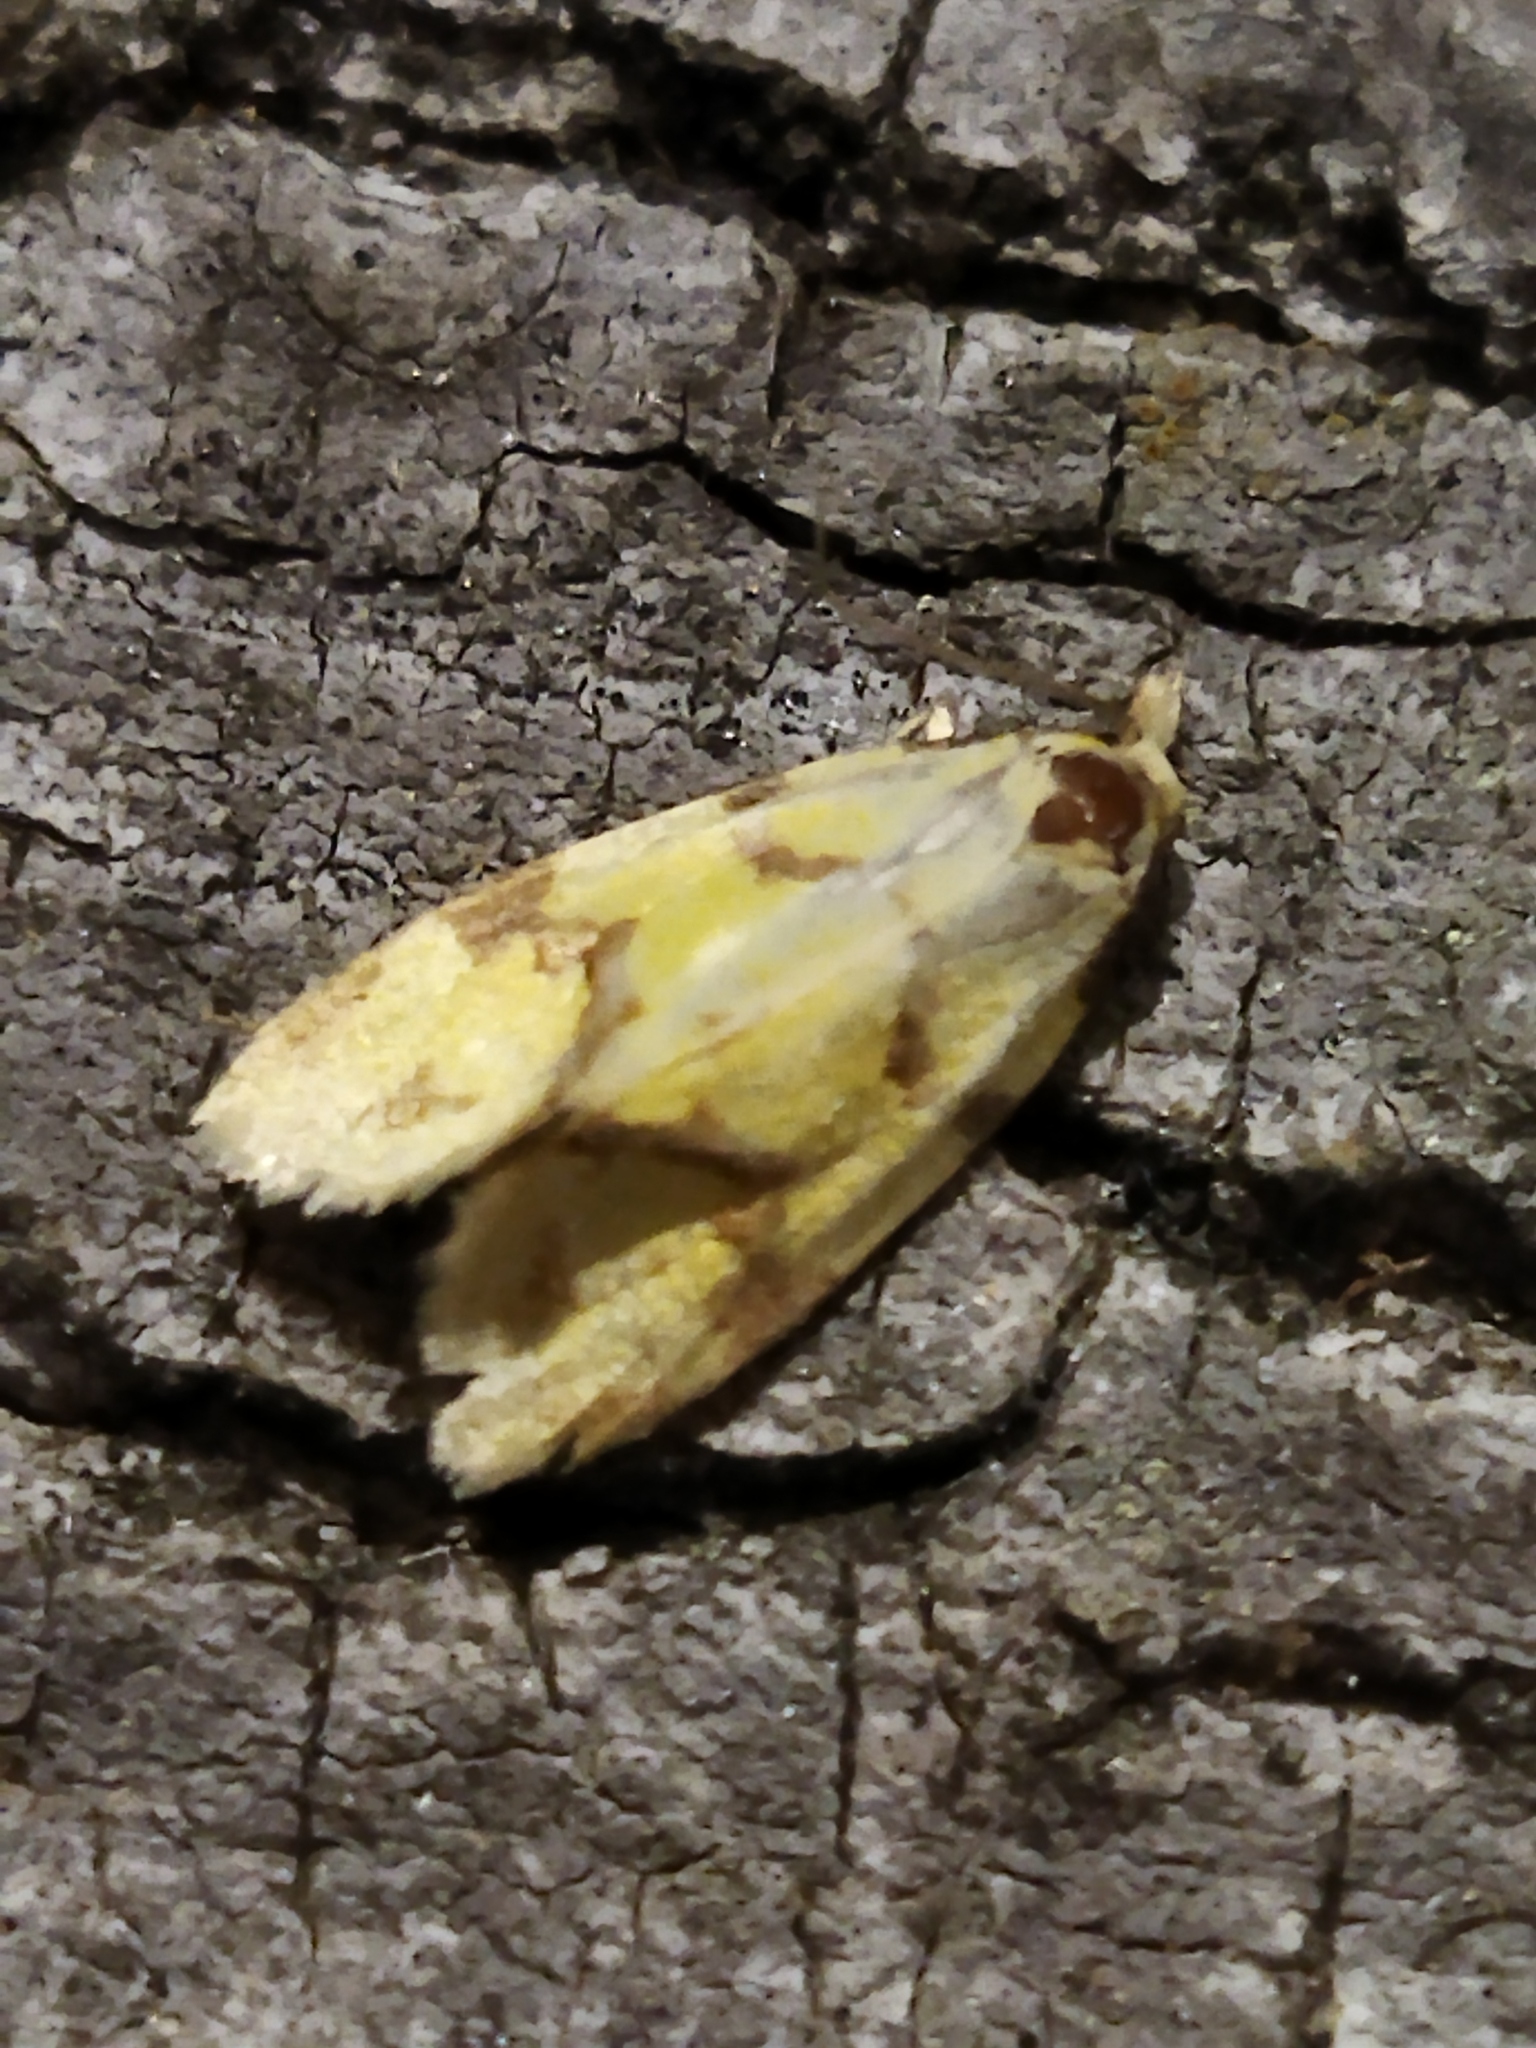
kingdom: Animalia
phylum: Arthropoda
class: Insecta
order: Lepidoptera
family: Tortricidae
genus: Agapeta
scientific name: Agapeta hamana
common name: Common yellow conch
